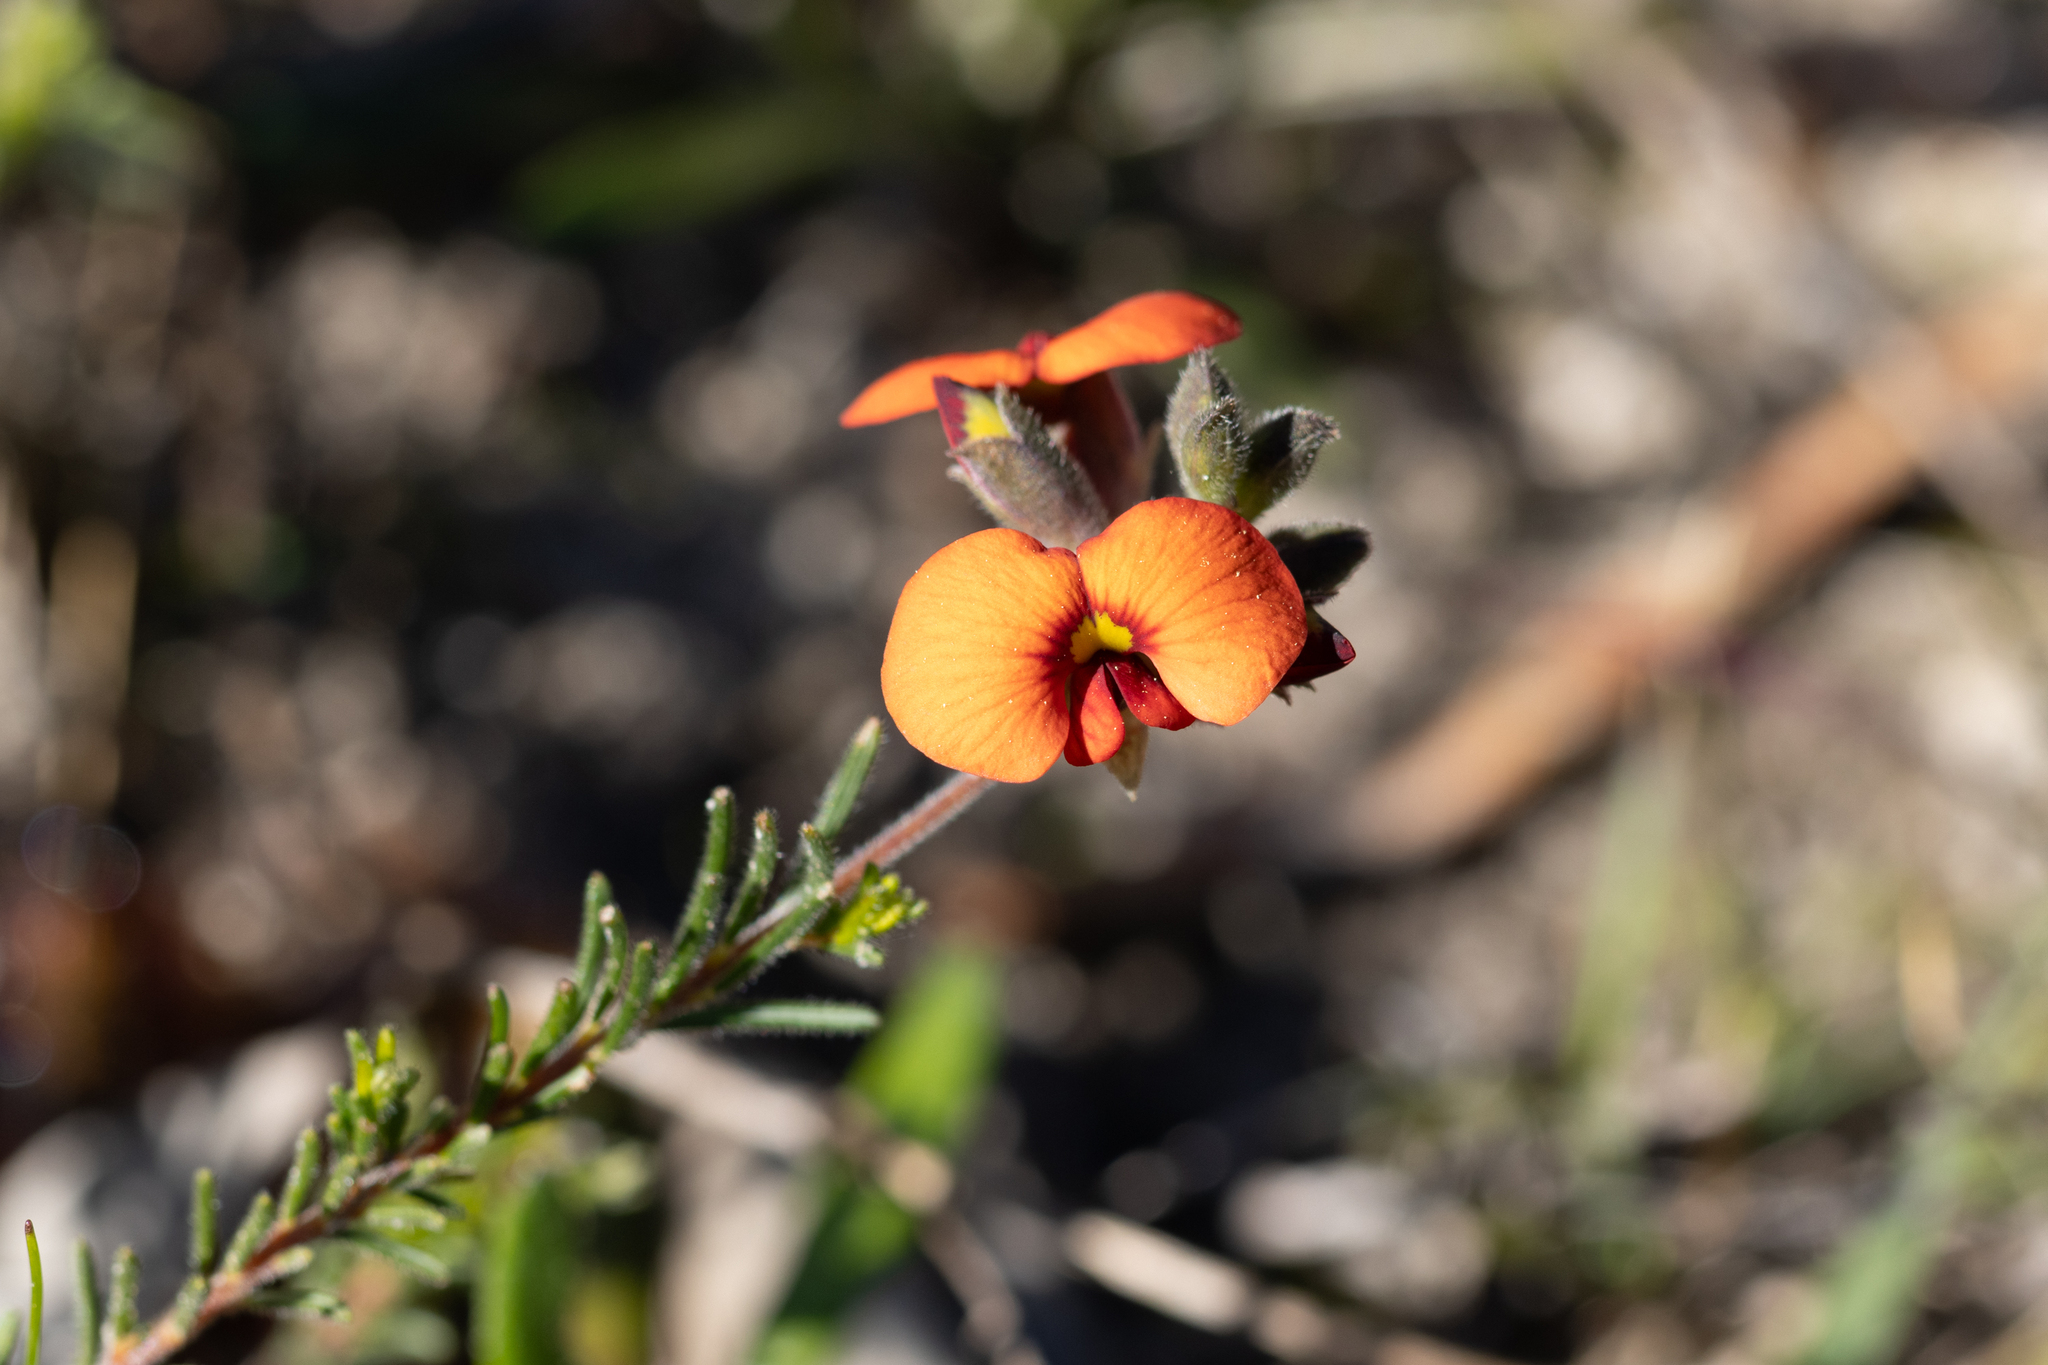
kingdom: Plantae
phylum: Tracheophyta
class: Magnoliopsida
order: Fabales
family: Fabaceae
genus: Dillwynia
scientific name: Dillwynia hispida
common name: Red parrot-pea
